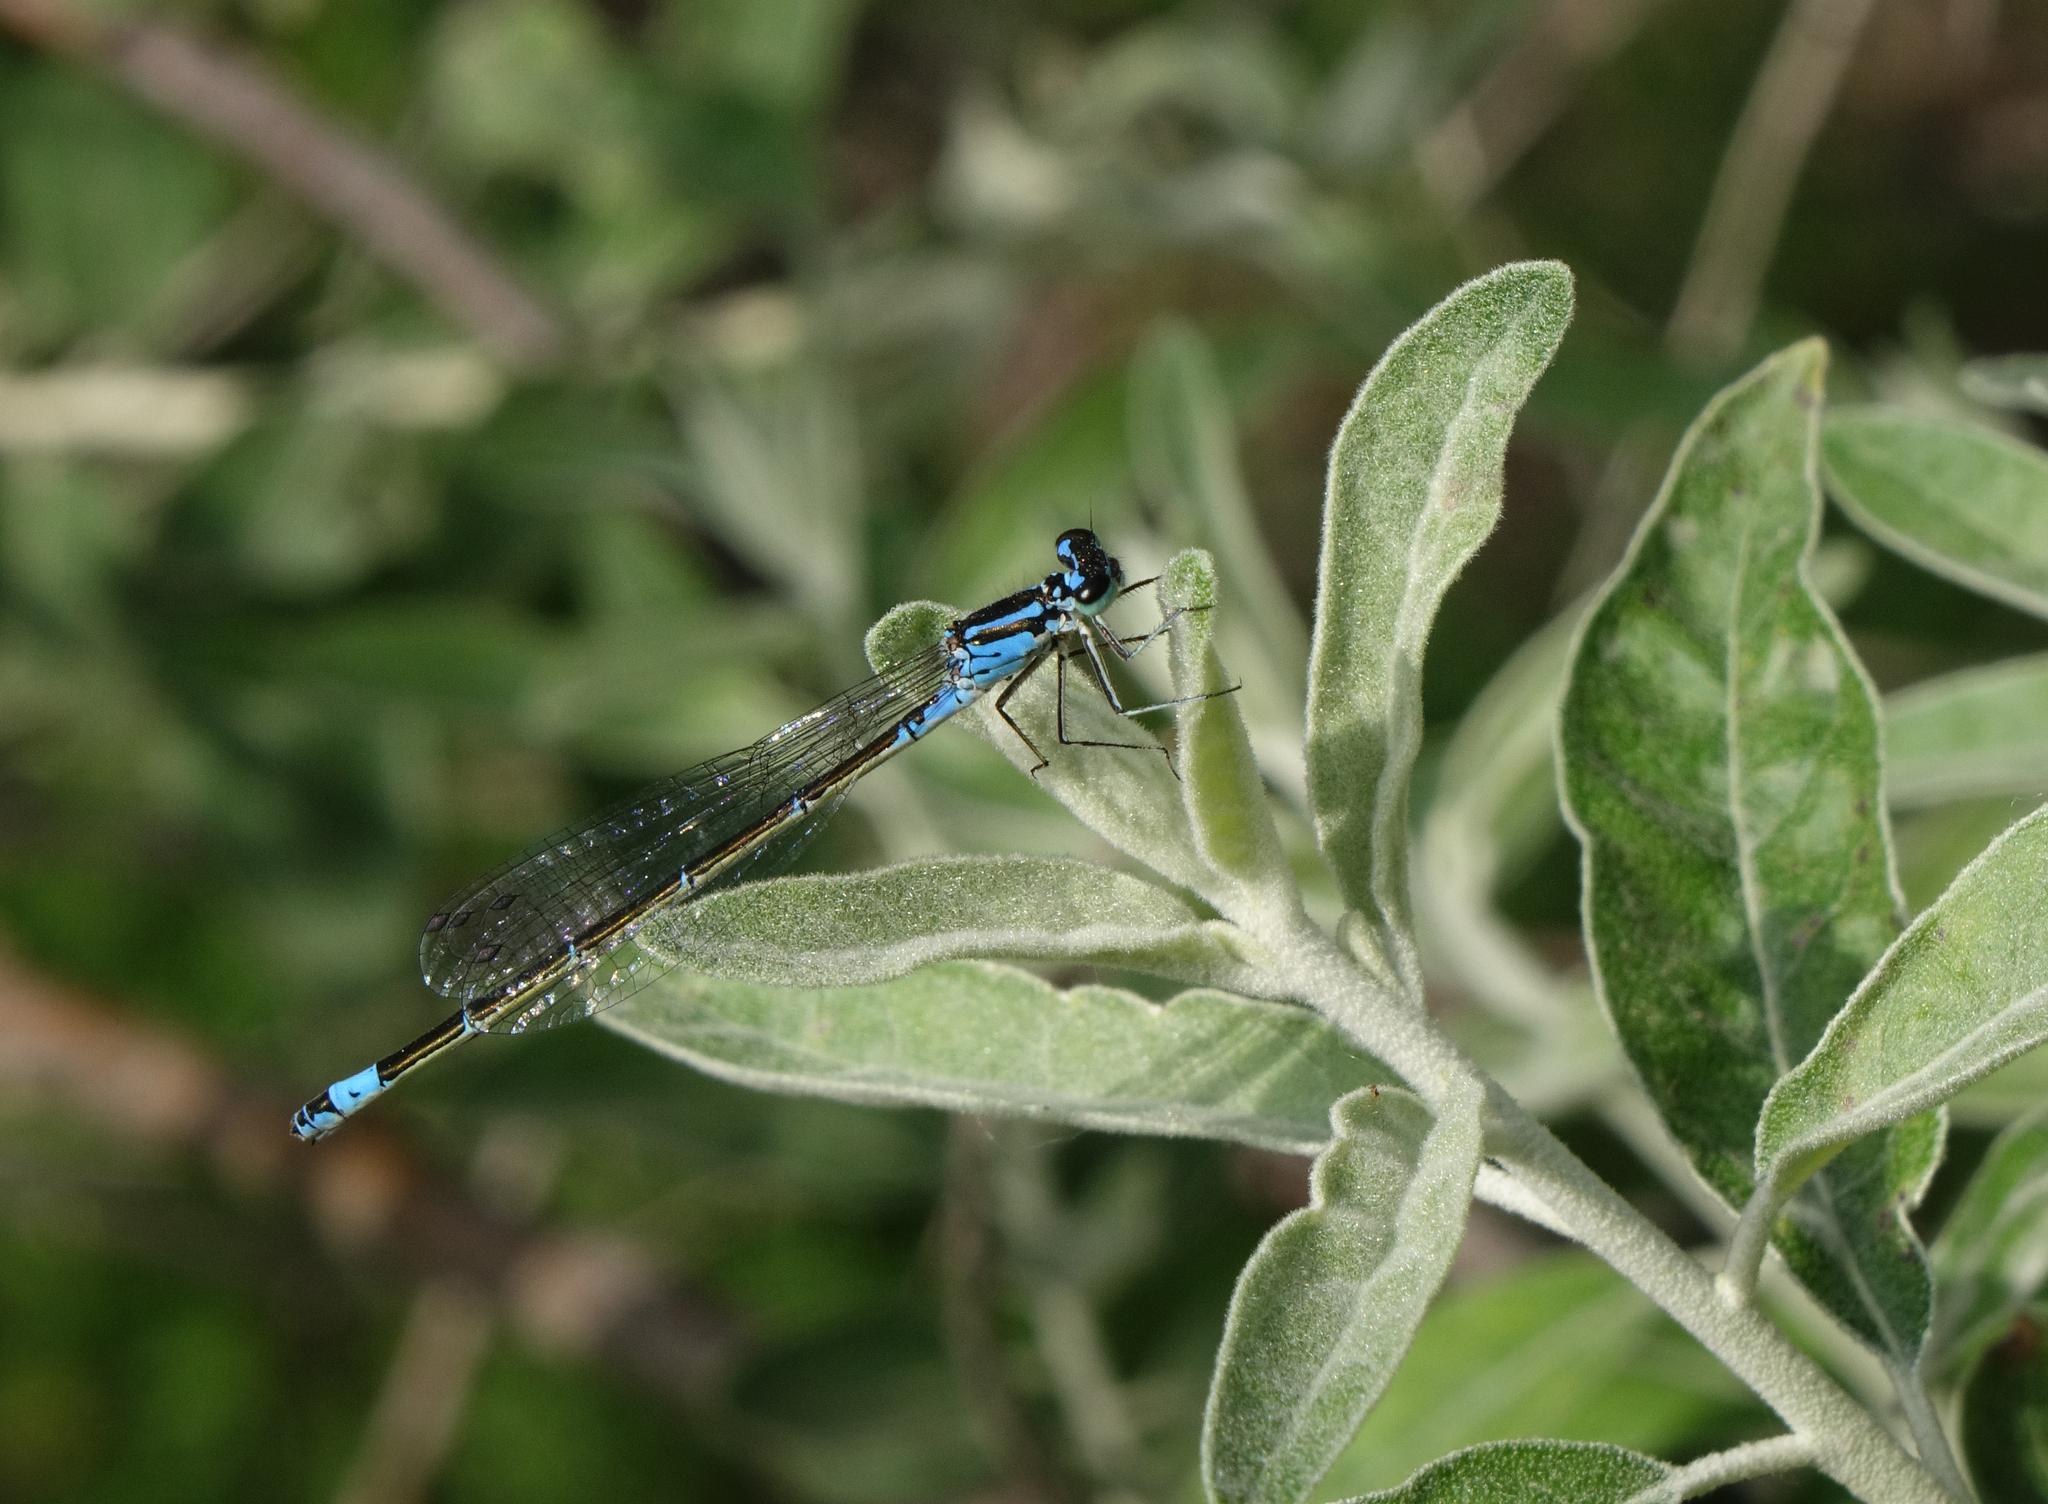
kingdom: Animalia
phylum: Arthropoda
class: Insecta
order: Odonata
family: Coenagrionidae
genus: Coenagrion
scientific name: Coenagrion pulchellum
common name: Variable bluet
